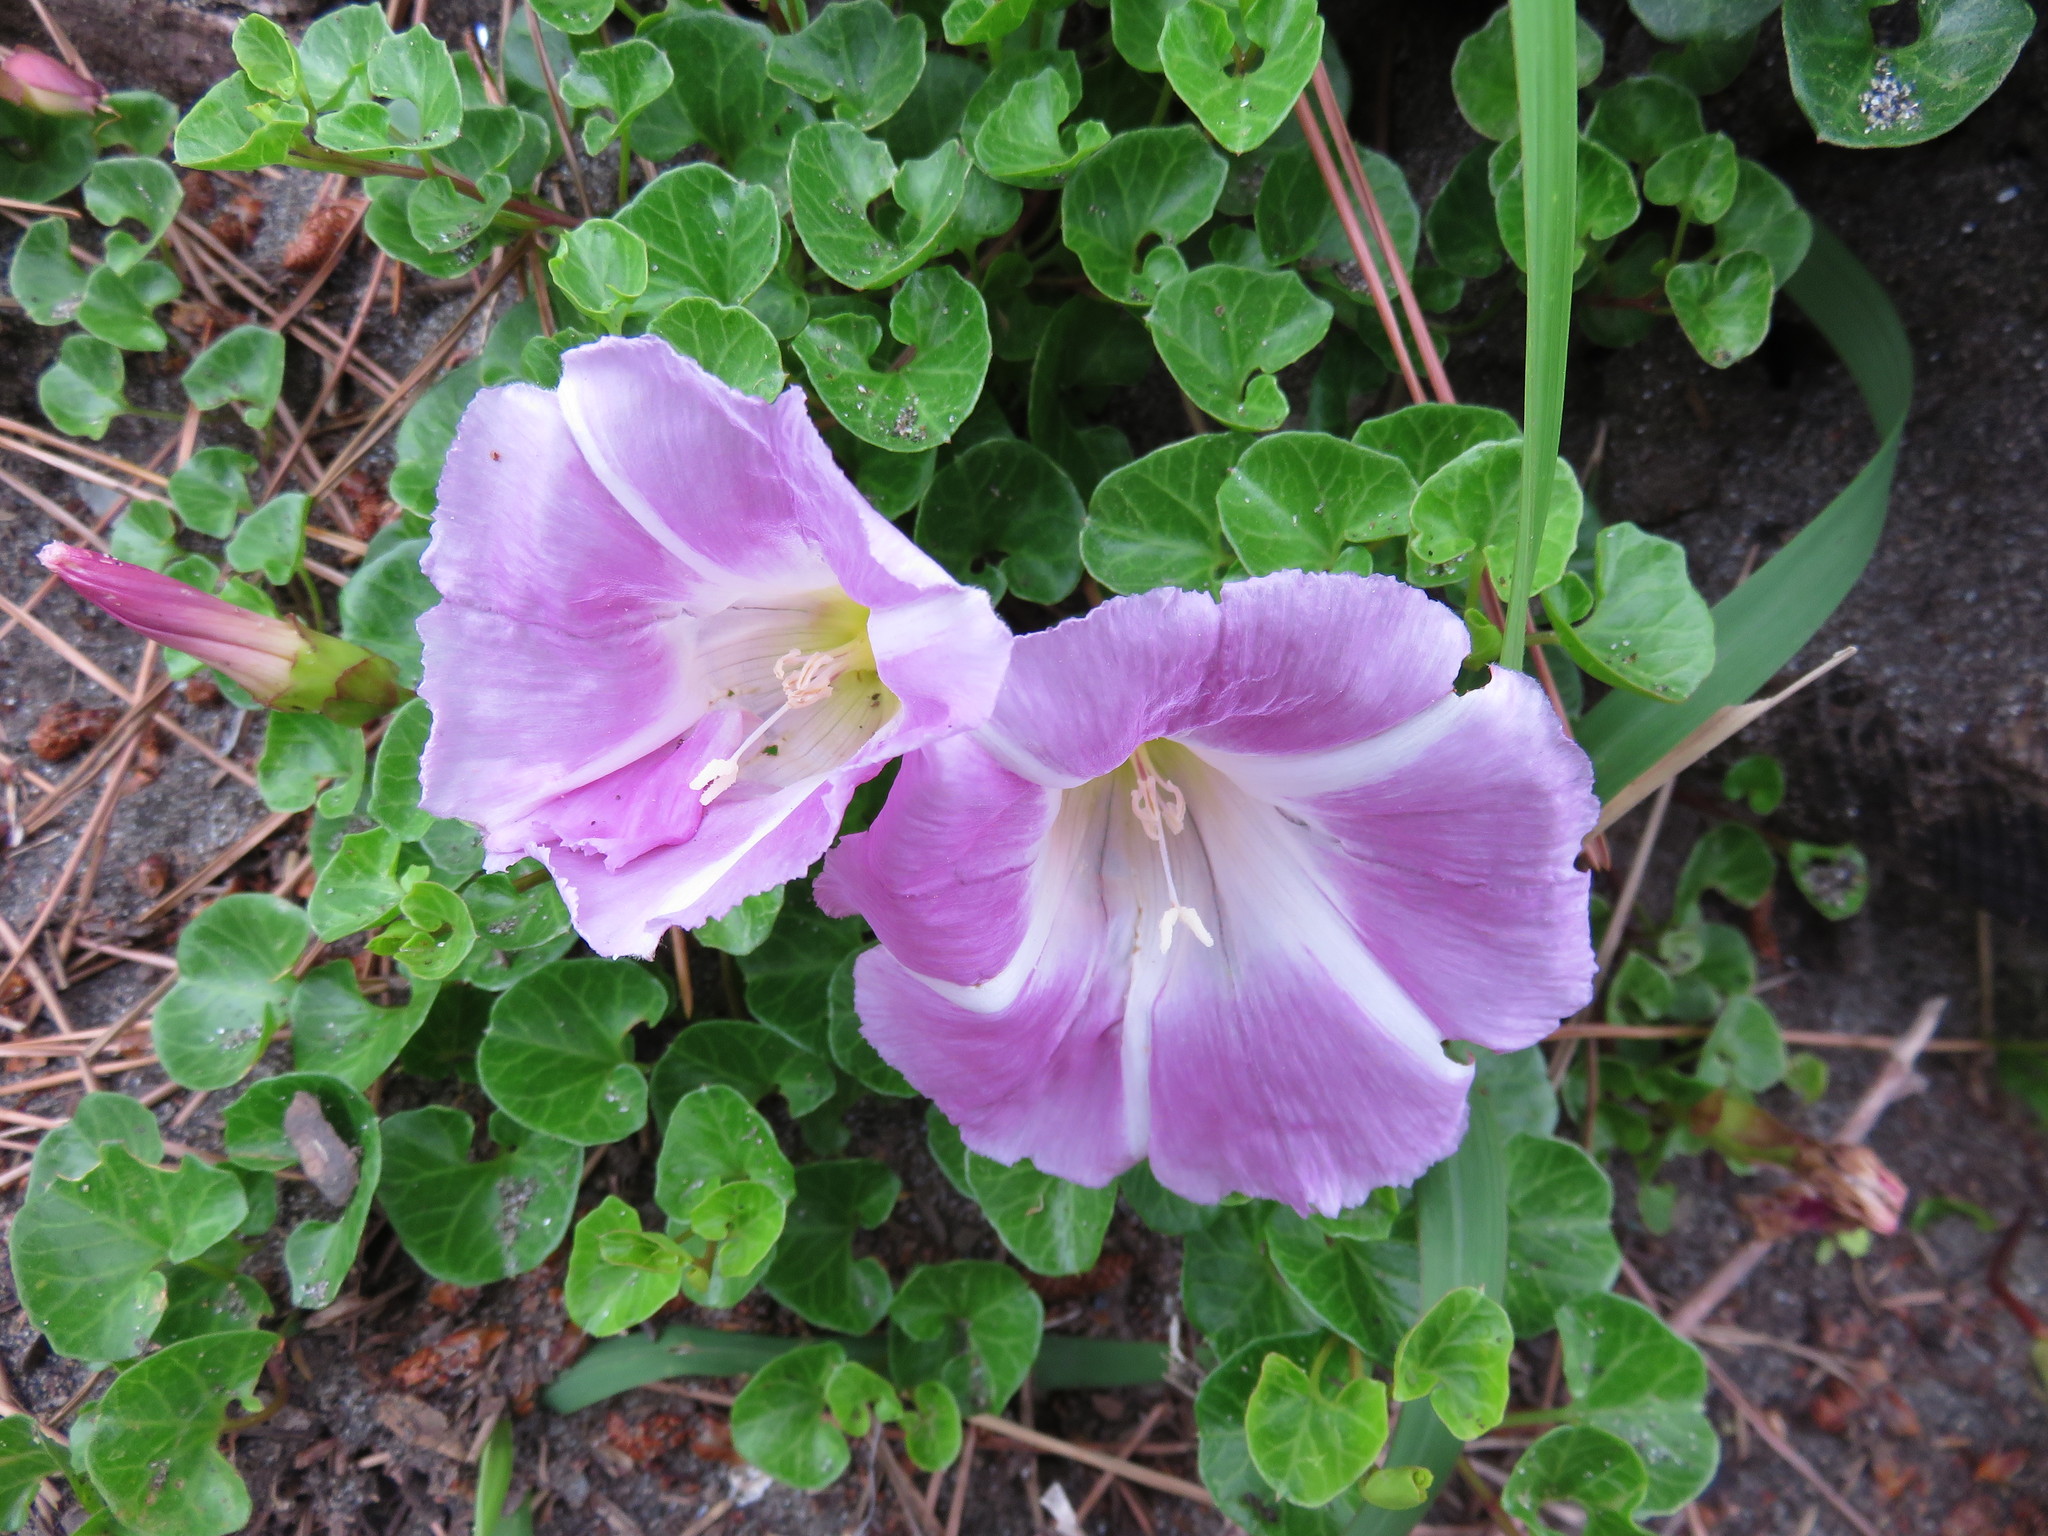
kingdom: Plantae
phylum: Tracheophyta
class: Magnoliopsida
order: Solanales
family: Convolvulaceae
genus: Calystegia
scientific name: Calystegia soldanella
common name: Sea bindweed
